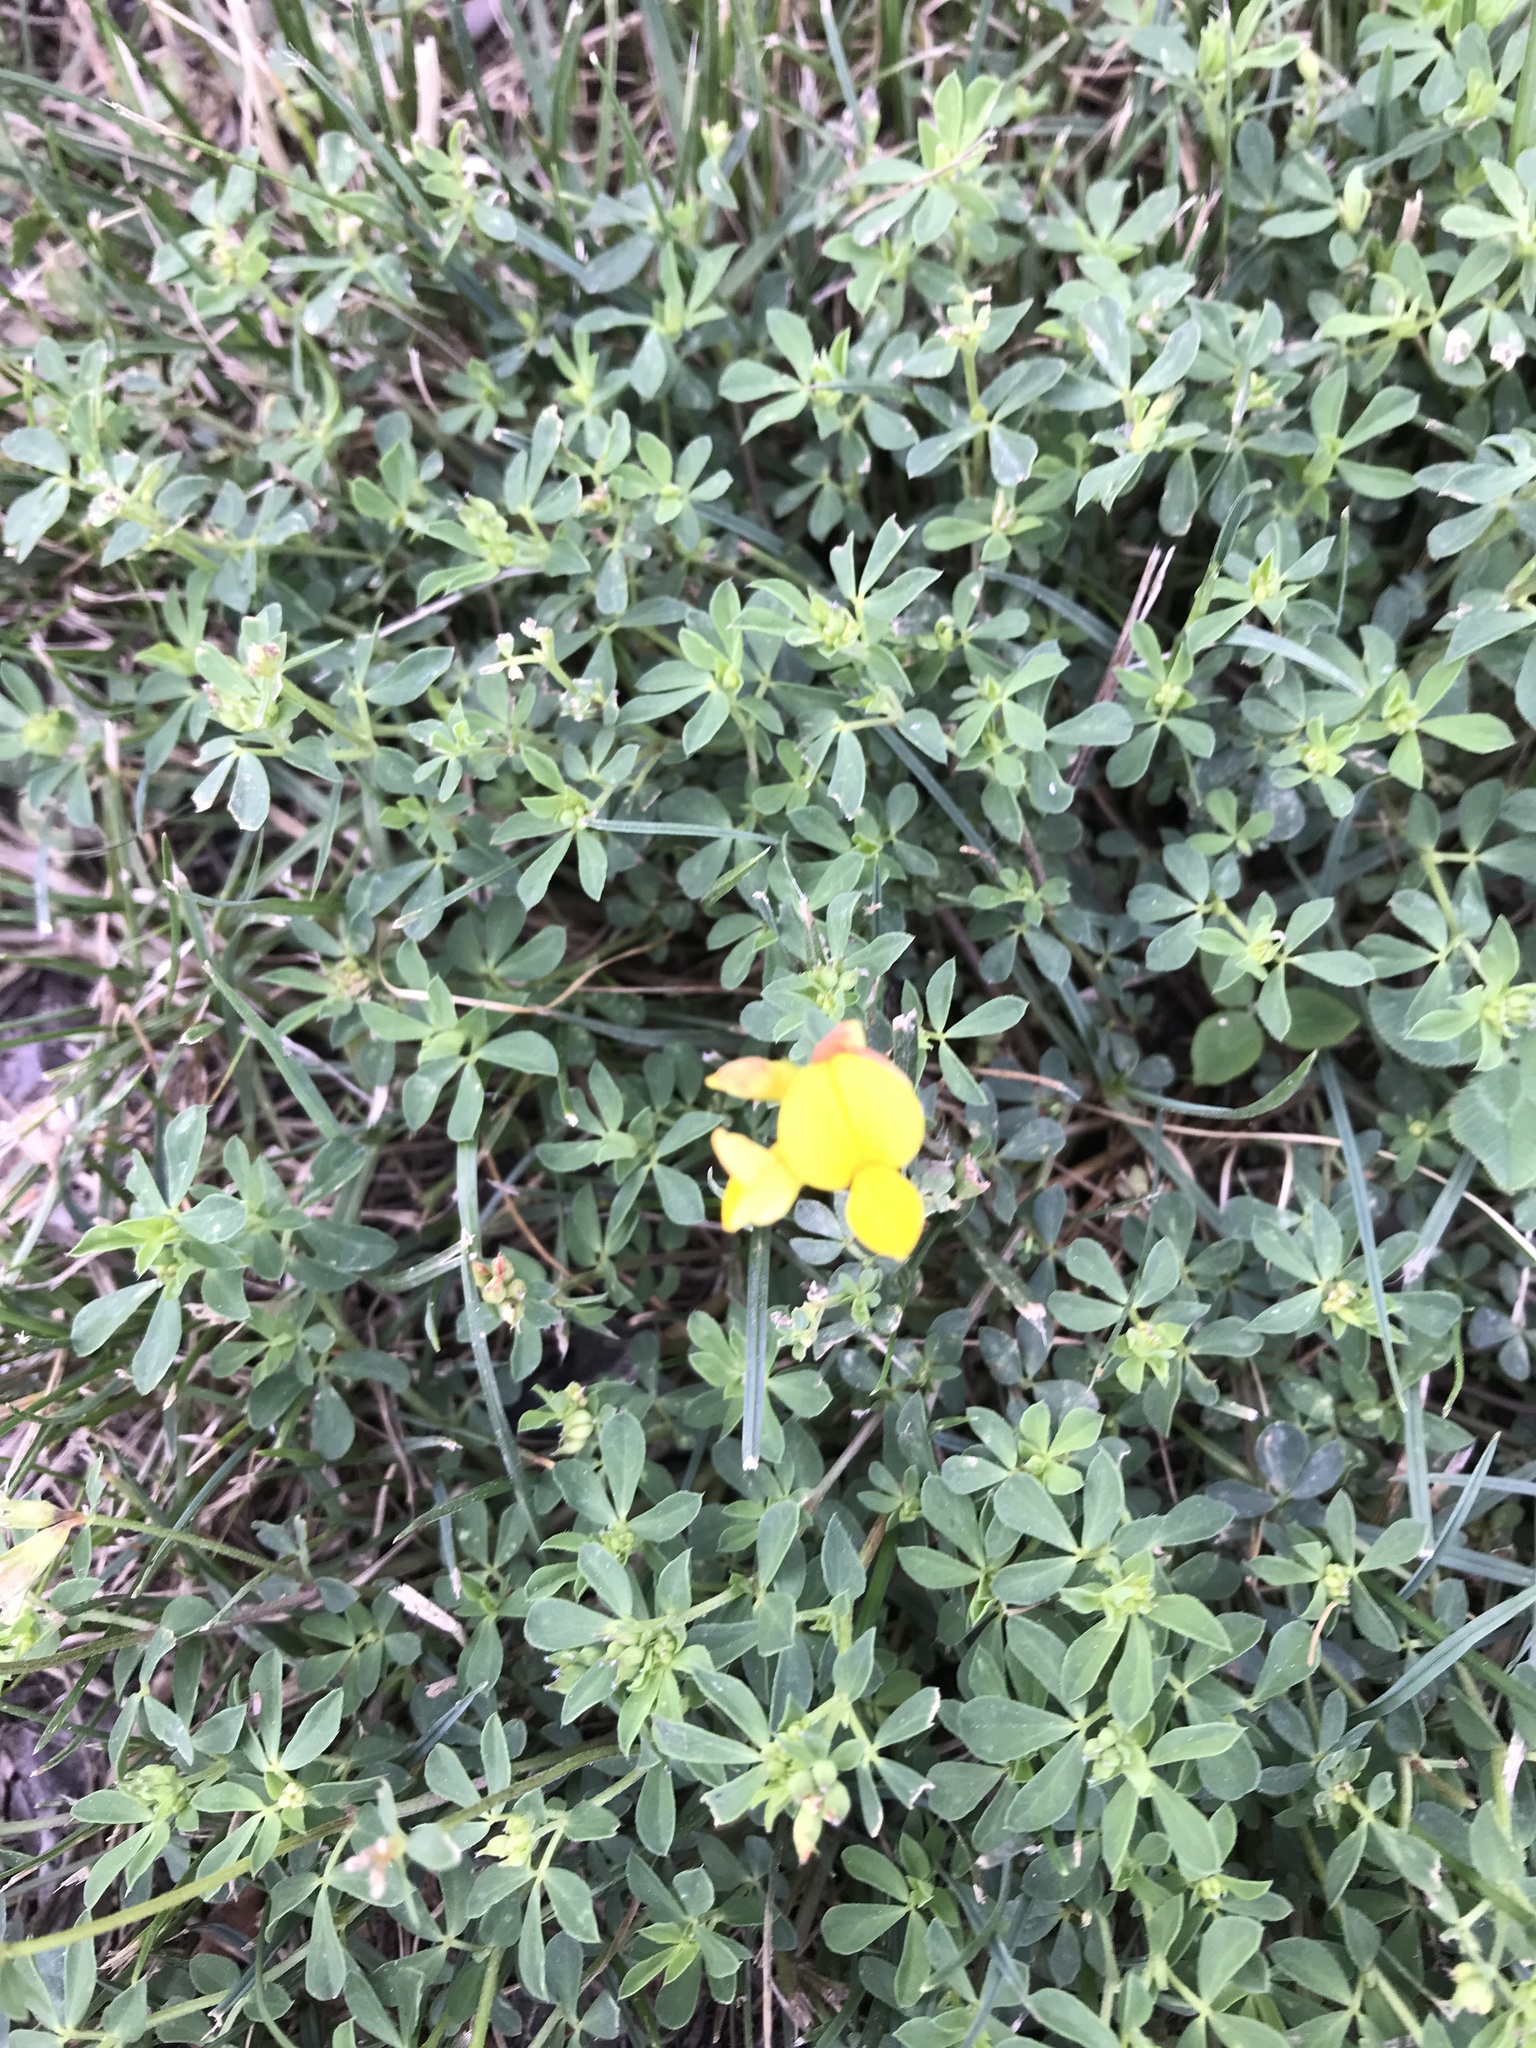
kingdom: Plantae
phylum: Tracheophyta
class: Magnoliopsida
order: Fabales
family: Fabaceae
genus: Lotus
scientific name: Lotus corniculatus
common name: Common bird's-foot-trefoil
